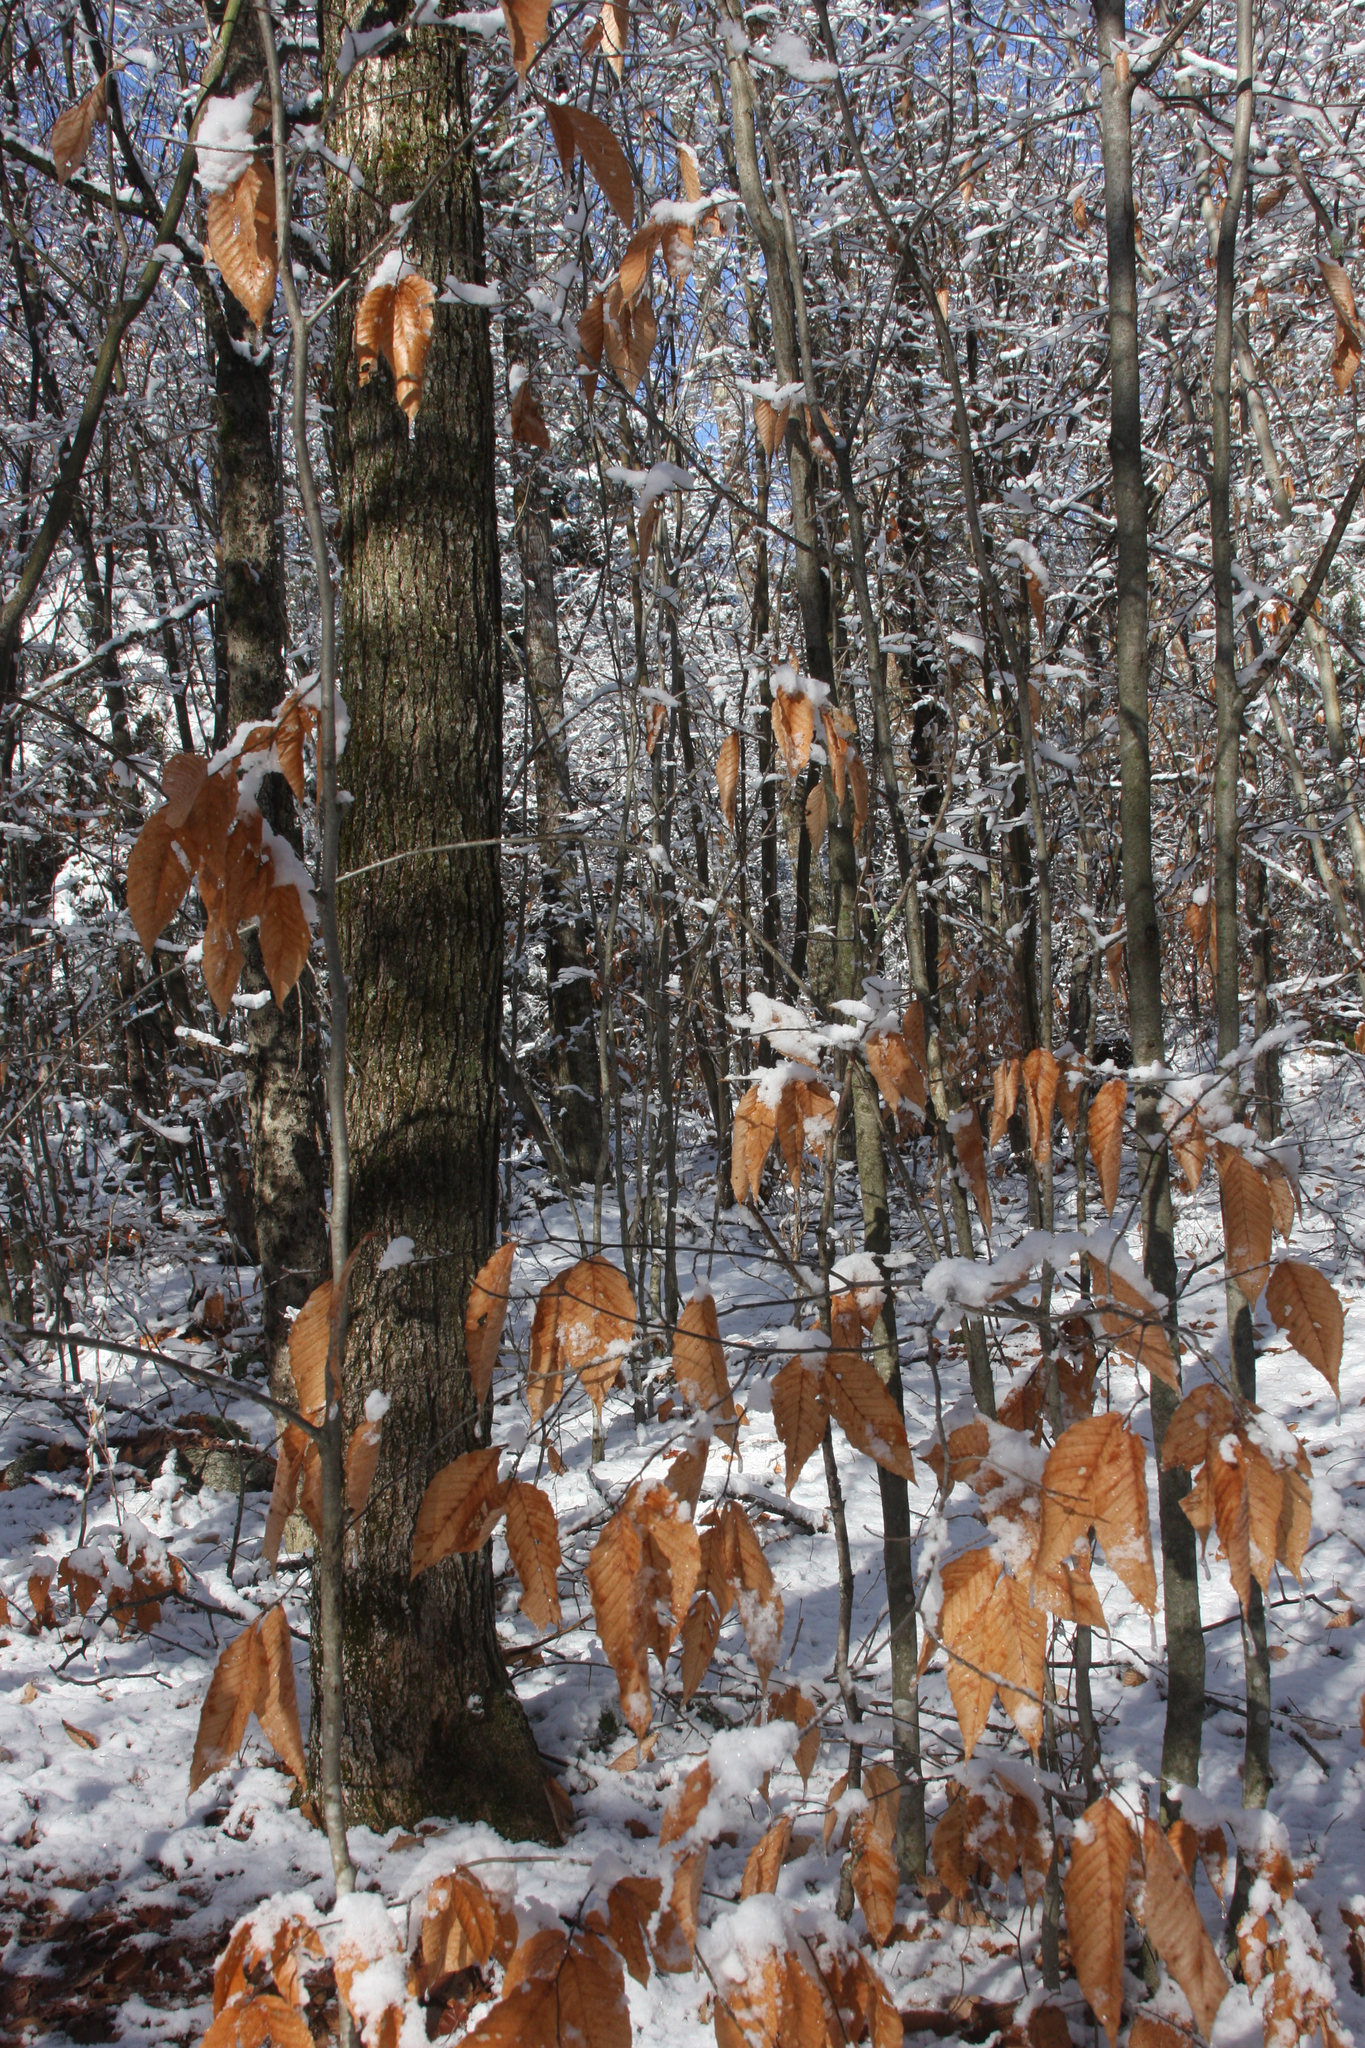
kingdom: Plantae
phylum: Tracheophyta
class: Magnoliopsida
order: Fagales
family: Fagaceae
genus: Fagus
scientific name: Fagus grandifolia
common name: American beech
